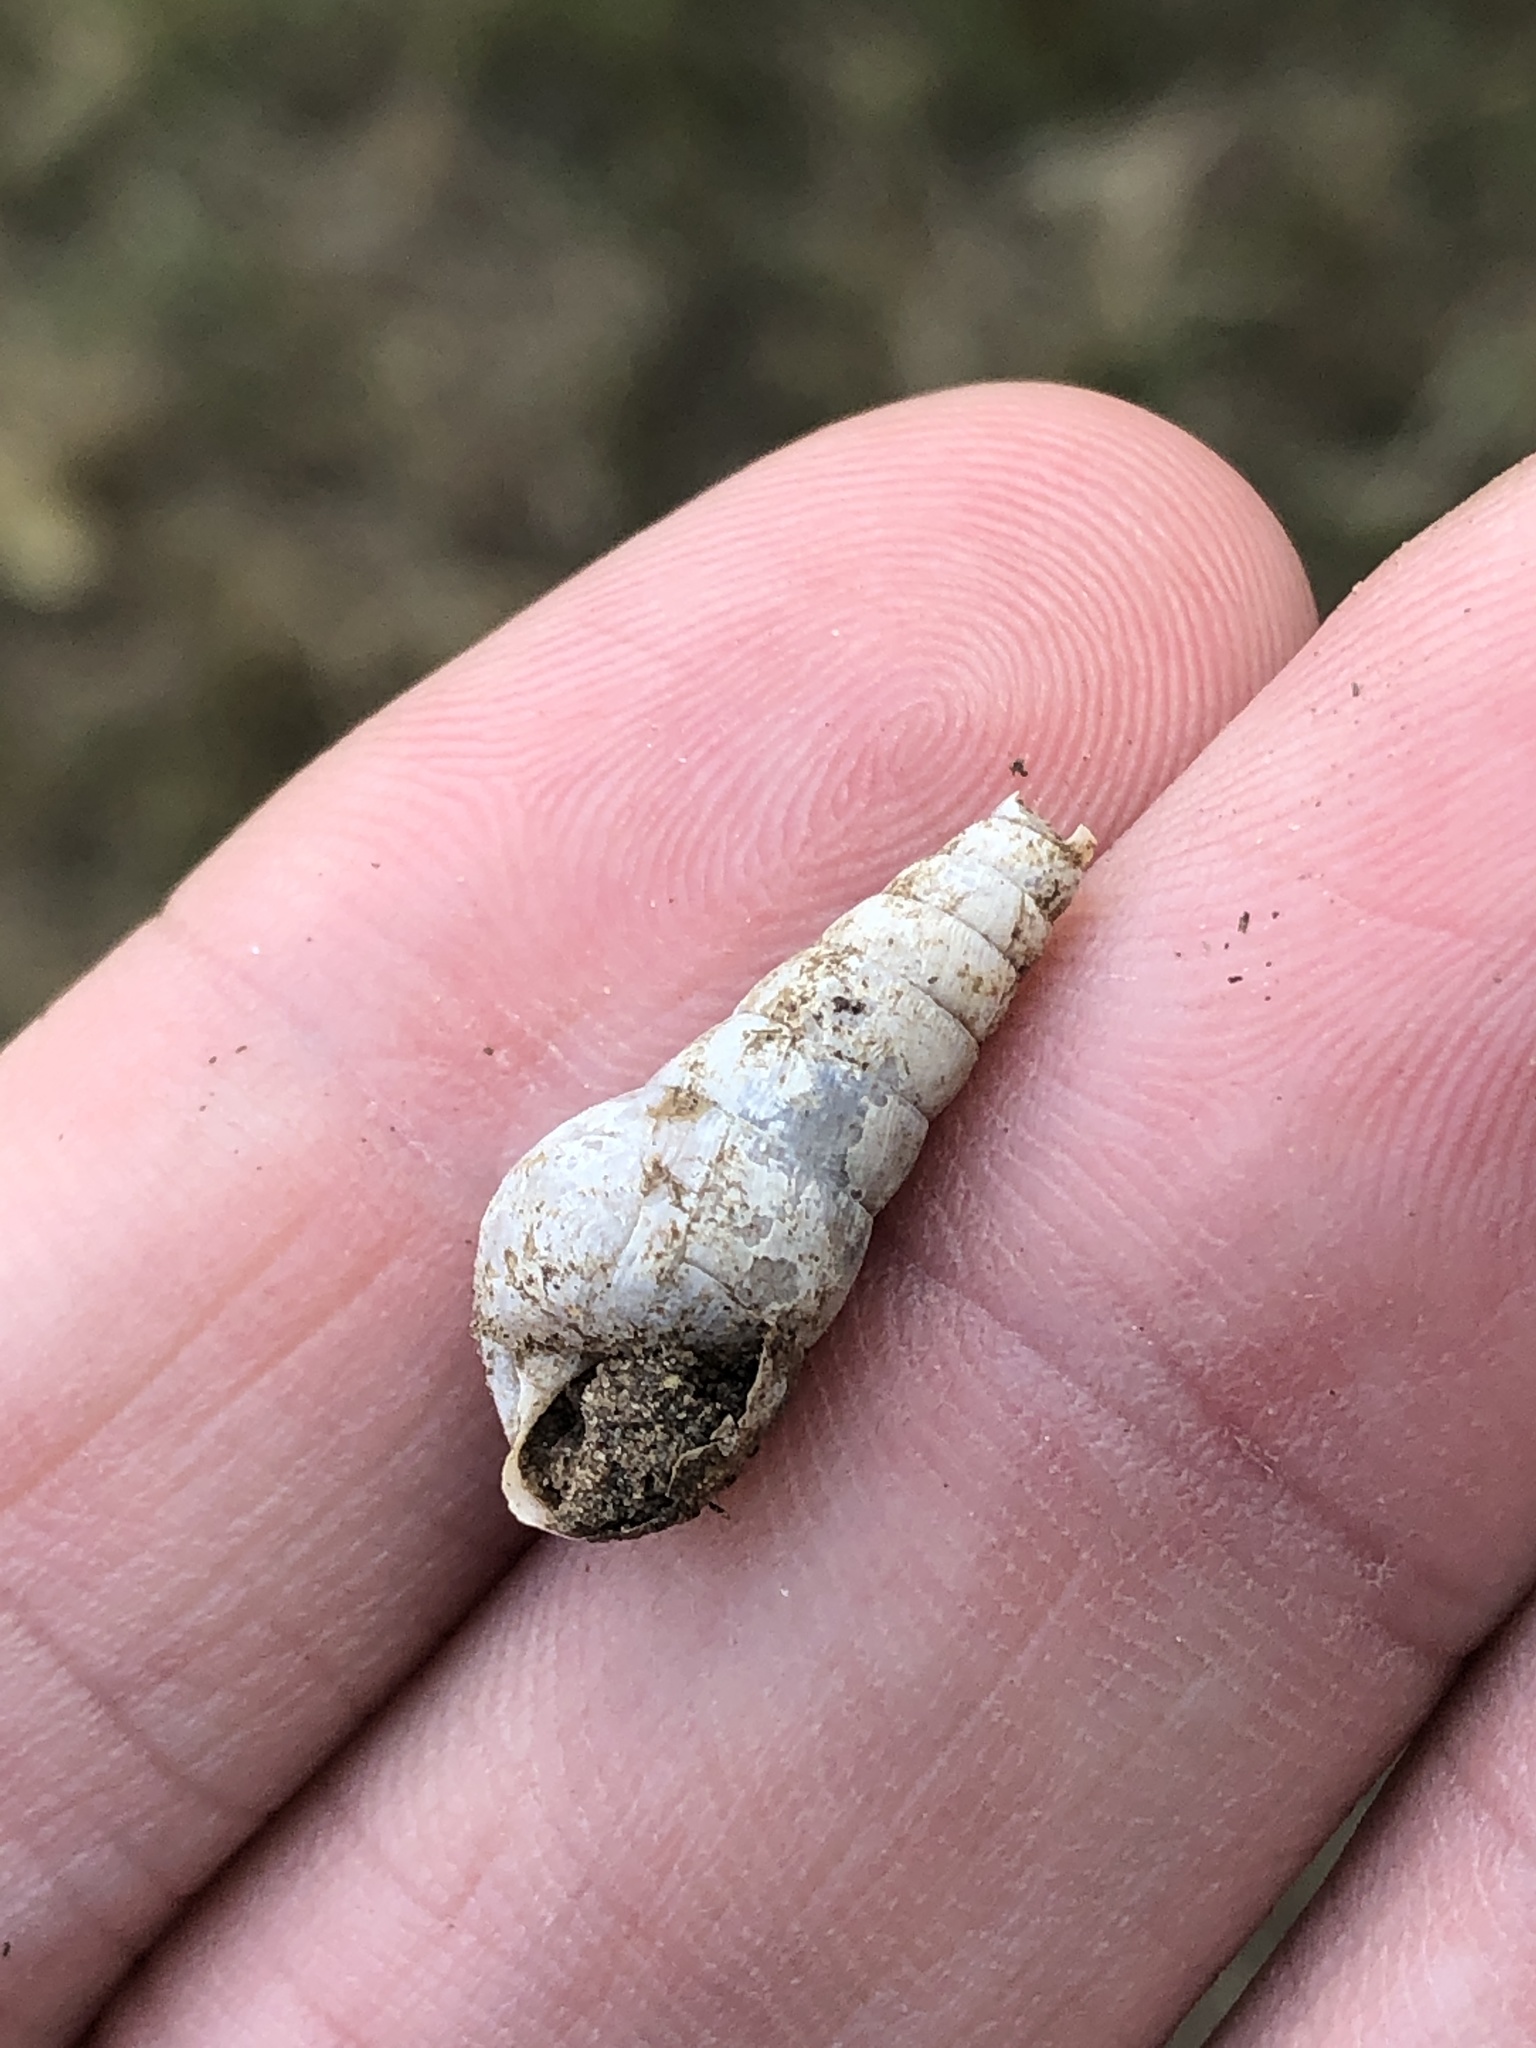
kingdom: Animalia
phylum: Mollusca
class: Gastropoda
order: Stylommatophora
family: Achatinidae
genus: Rumina
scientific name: Rumina decollata
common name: Decollate snail
